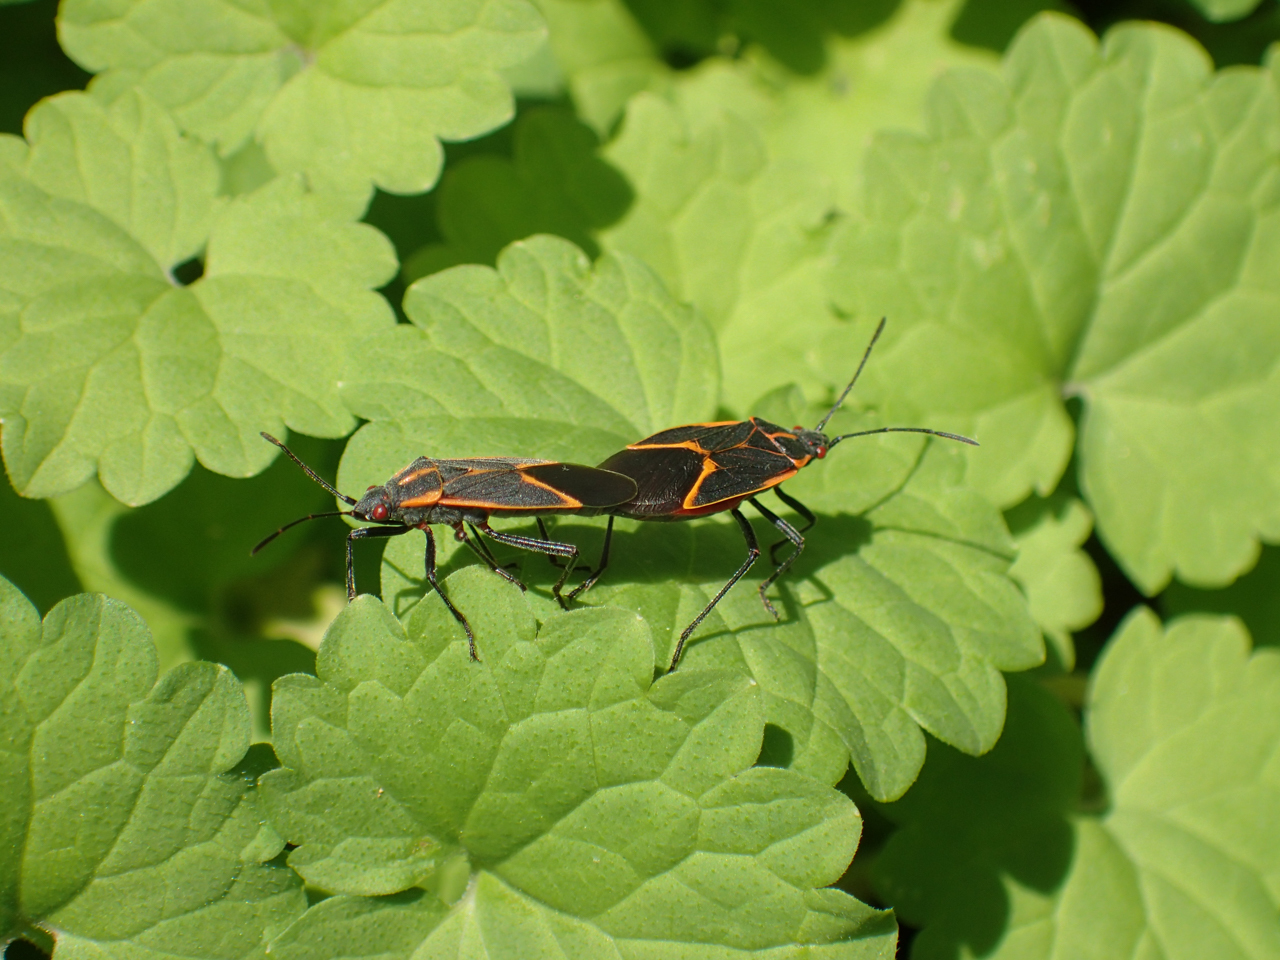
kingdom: Animalia
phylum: Arthropoda
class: Insecta
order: Hemiptera
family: Rhopalidae
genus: Boisea
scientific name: Boisea trivittata
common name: Boxelder bug
